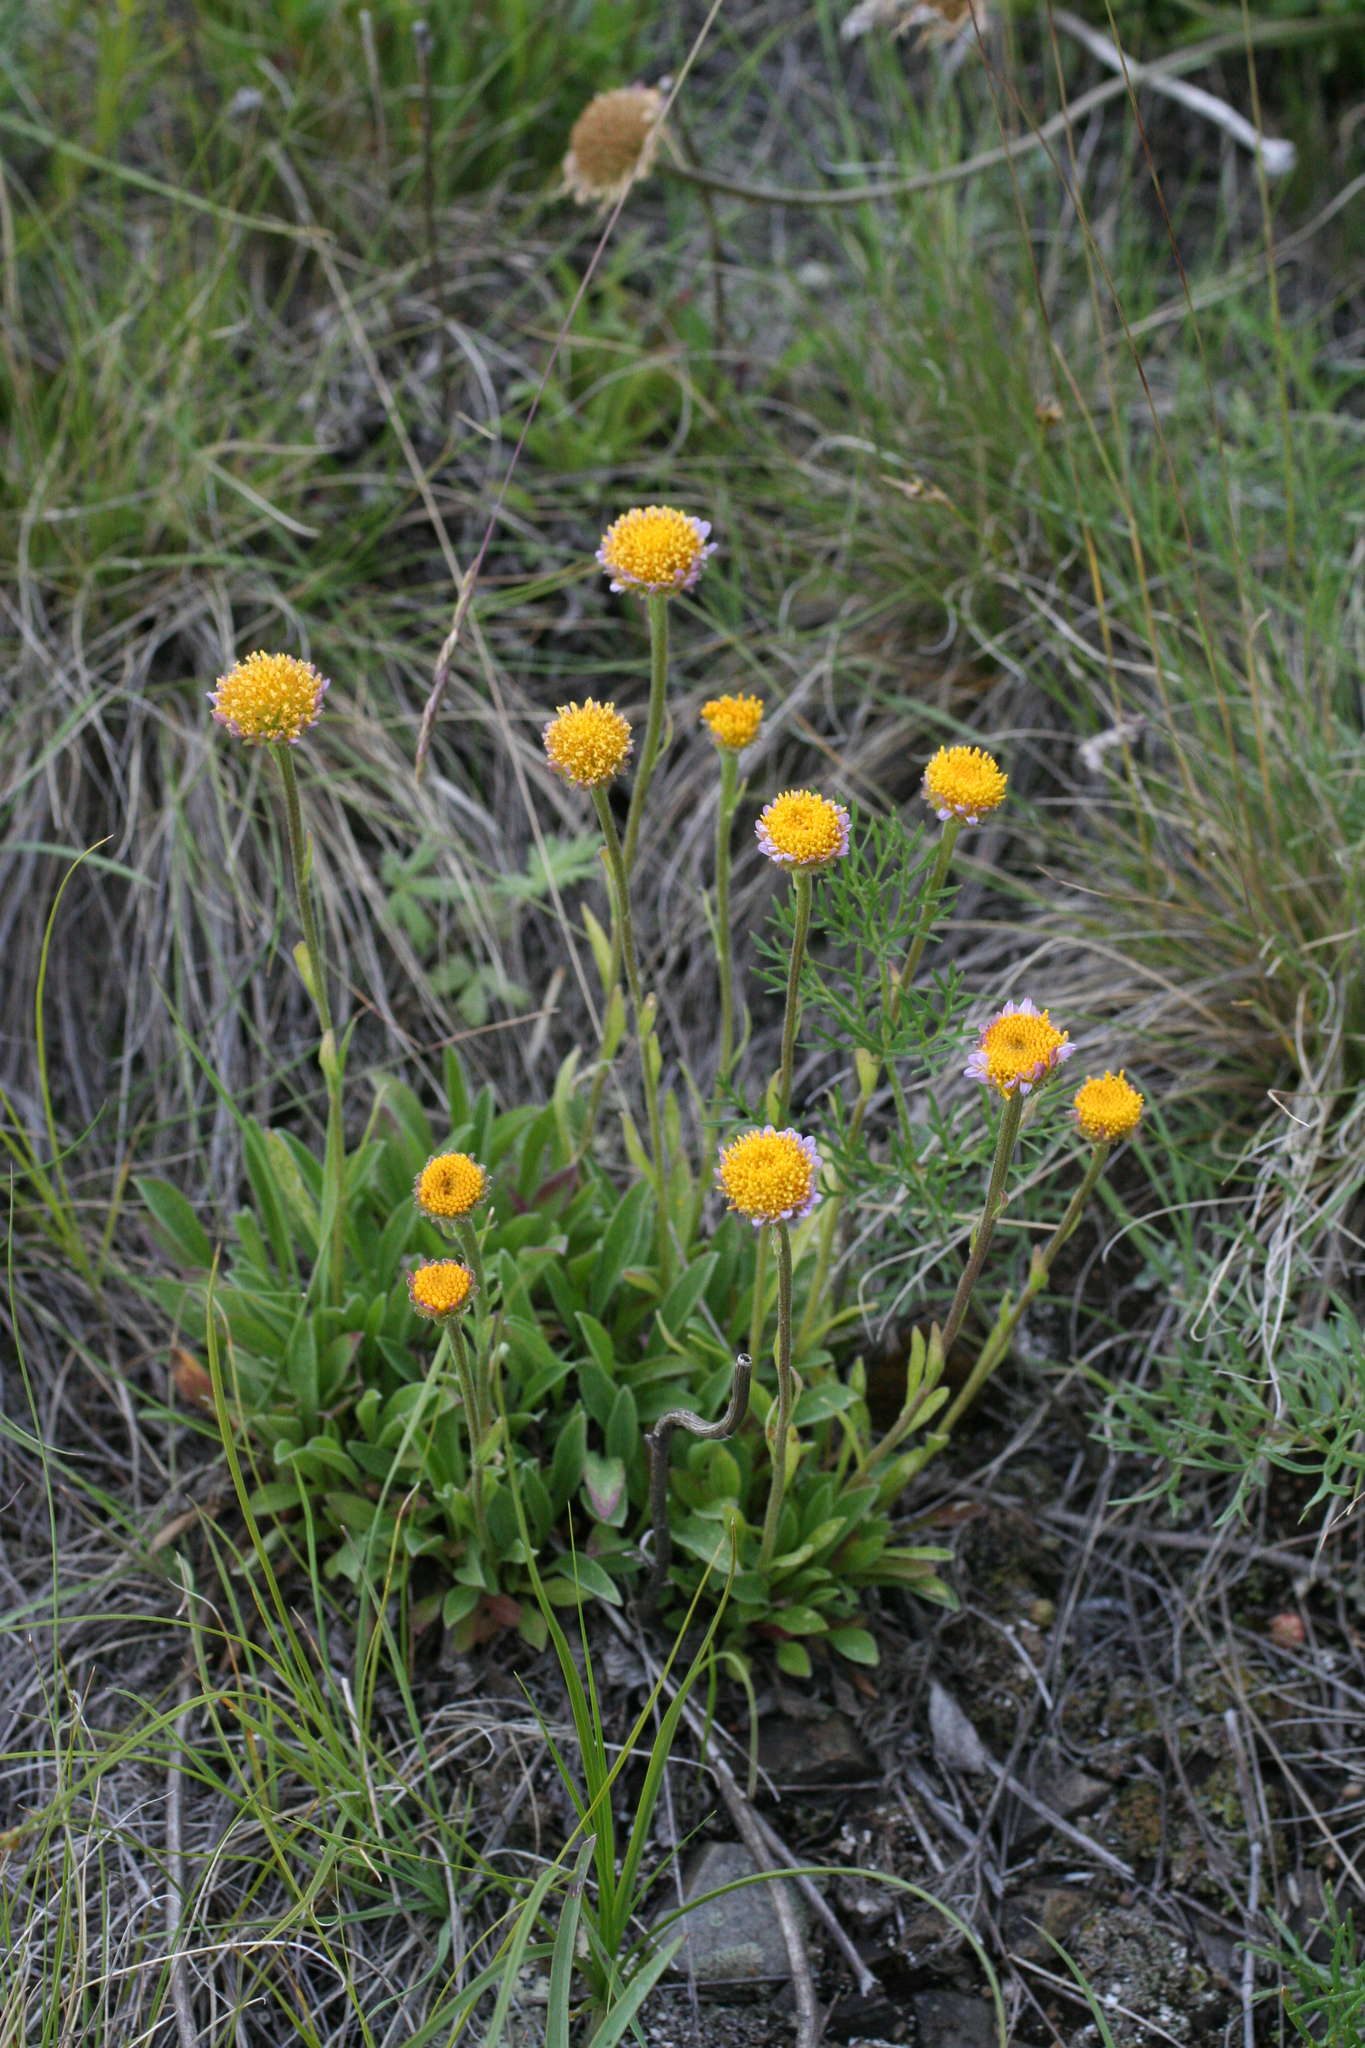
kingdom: Plantae
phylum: Tracheophyta
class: Magnoliopsida
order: Asterales
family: Asteraceae
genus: Aster
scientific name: Aster alpinus
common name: Alpine aster
